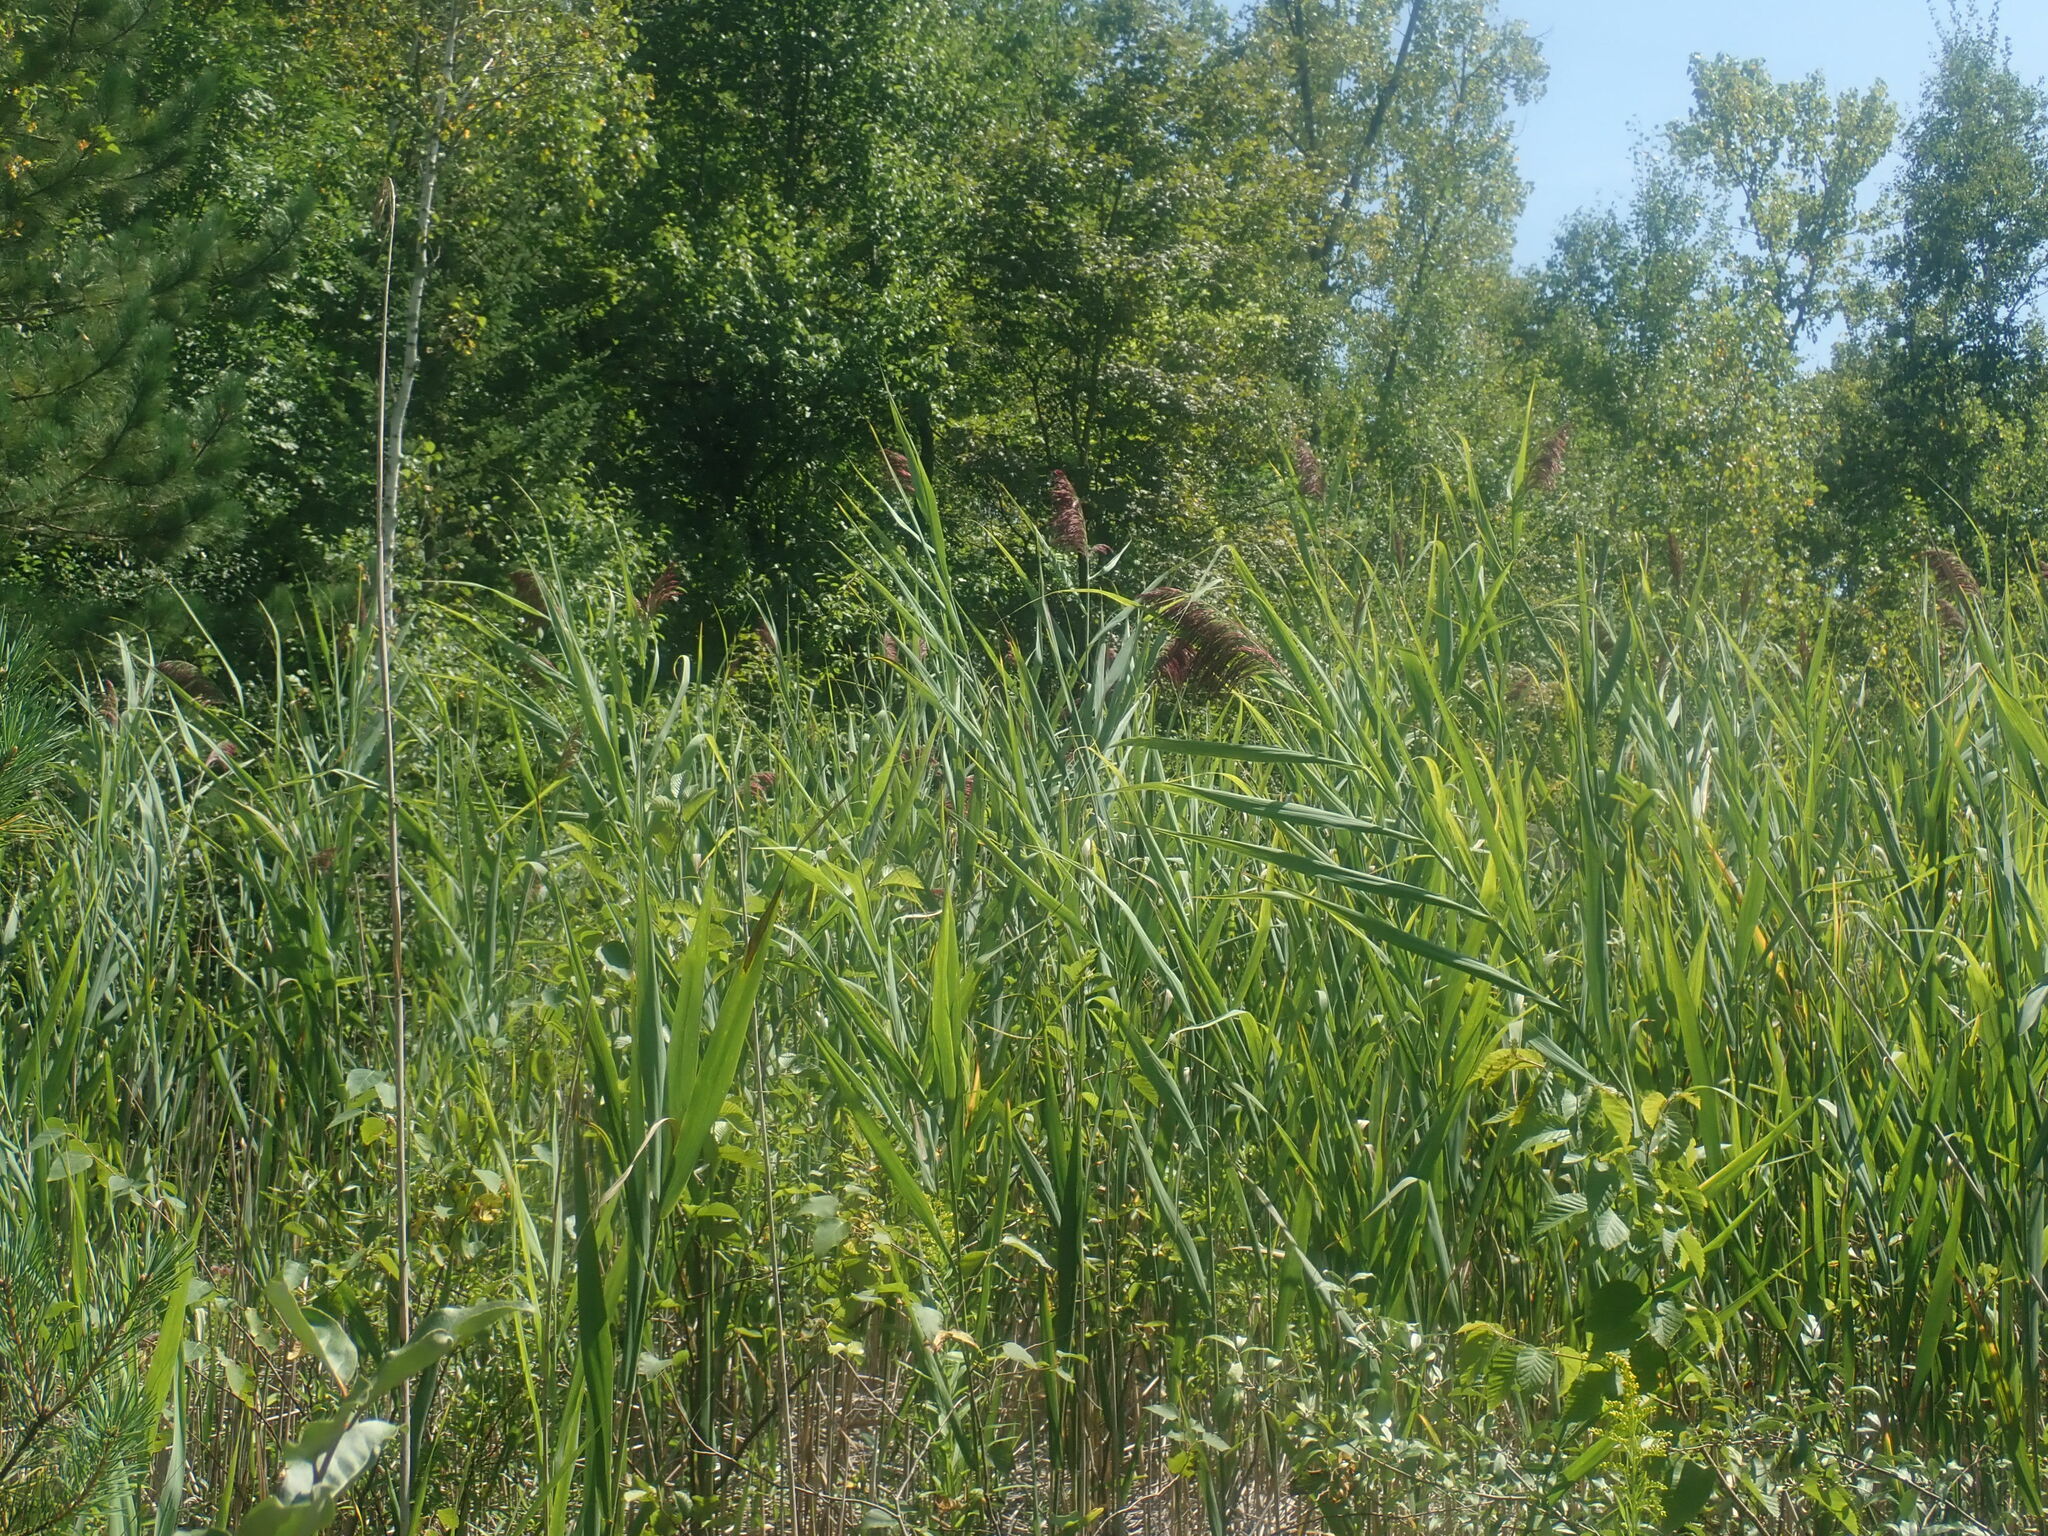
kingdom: Plantae
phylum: Tracheophyta
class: Liliopsida
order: Poales
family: Poaceae
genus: Phragmites
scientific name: Phragmites australis
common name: Common reed
